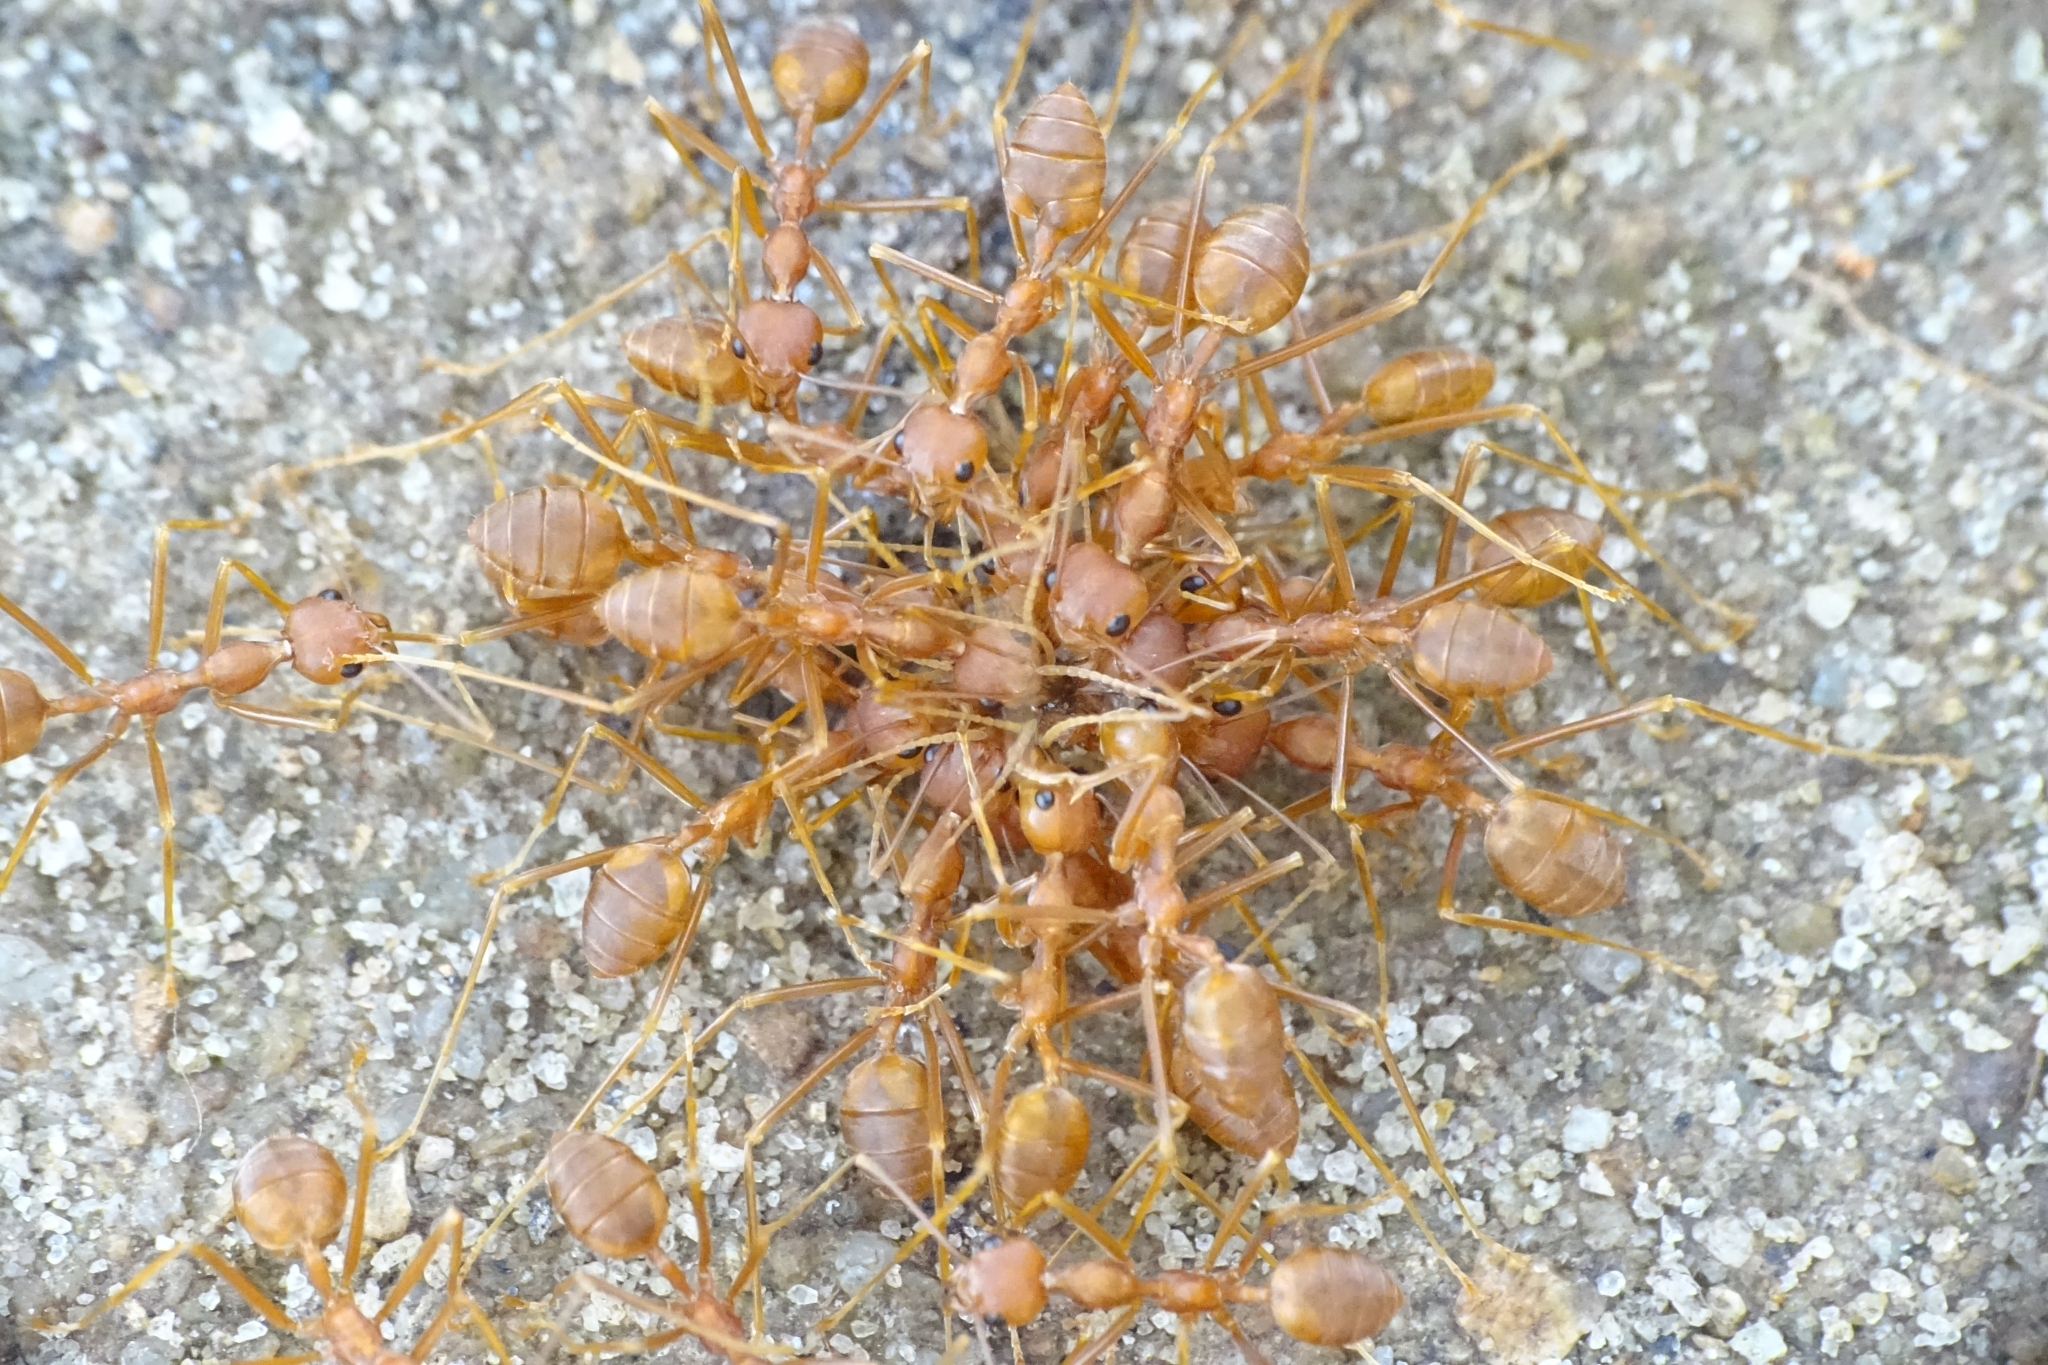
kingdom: Animalia
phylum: Arthropoda
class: Insecta
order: Hymenoptera
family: Formicidae
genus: Oecophylla
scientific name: Oecophylla smaragdina
